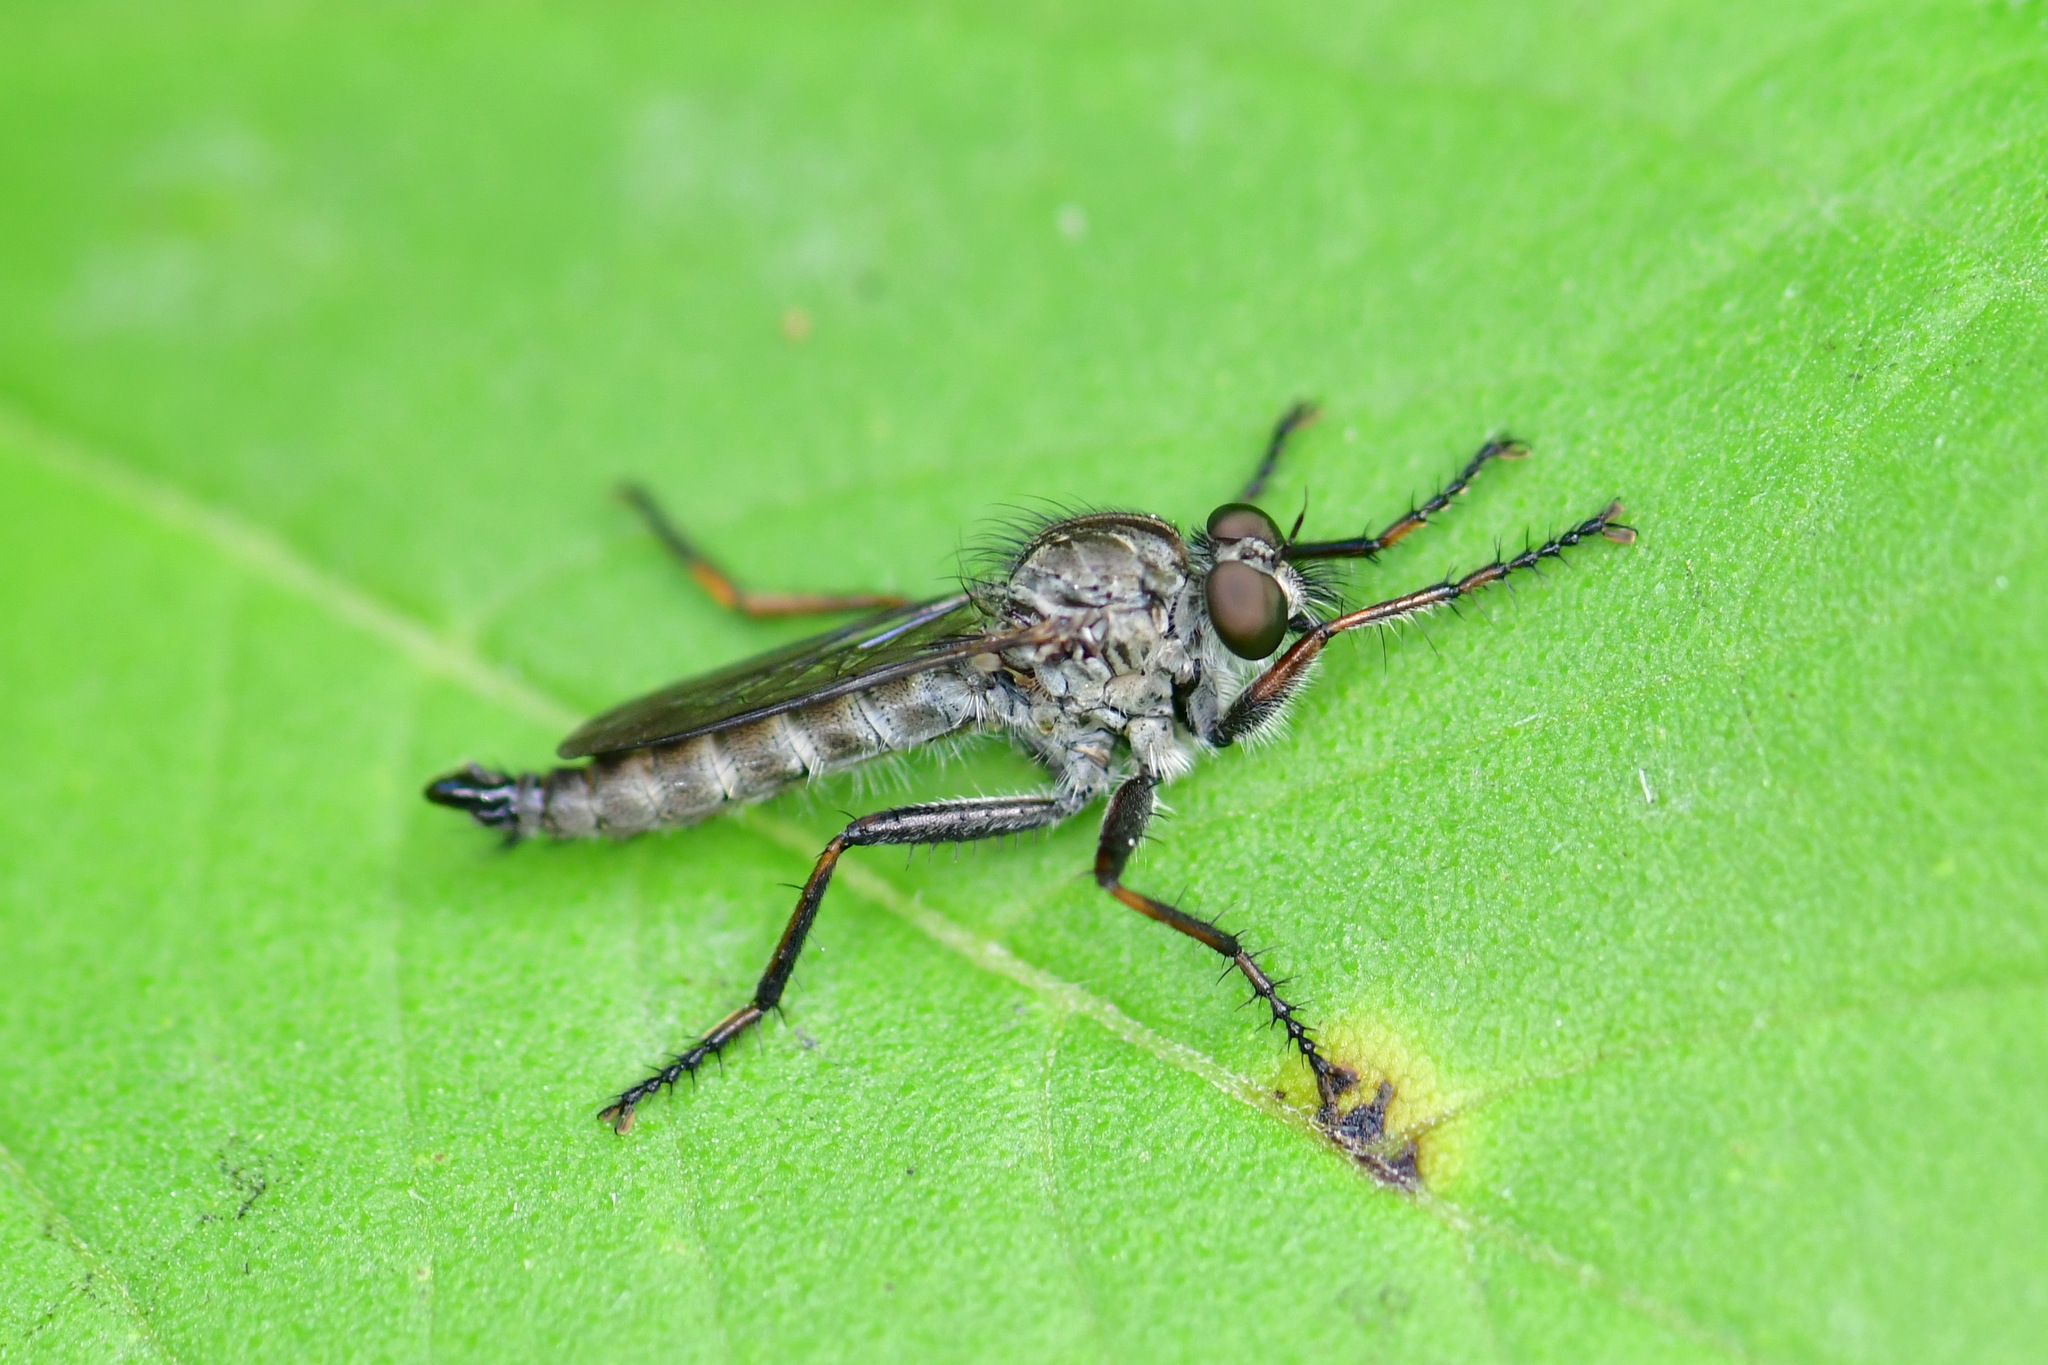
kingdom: Animalia
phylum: Arthropoda
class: Insecta
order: Diptera
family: Asilidae
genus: Machimus
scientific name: Machimus atricapillus
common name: Kite-tailed robberfly
